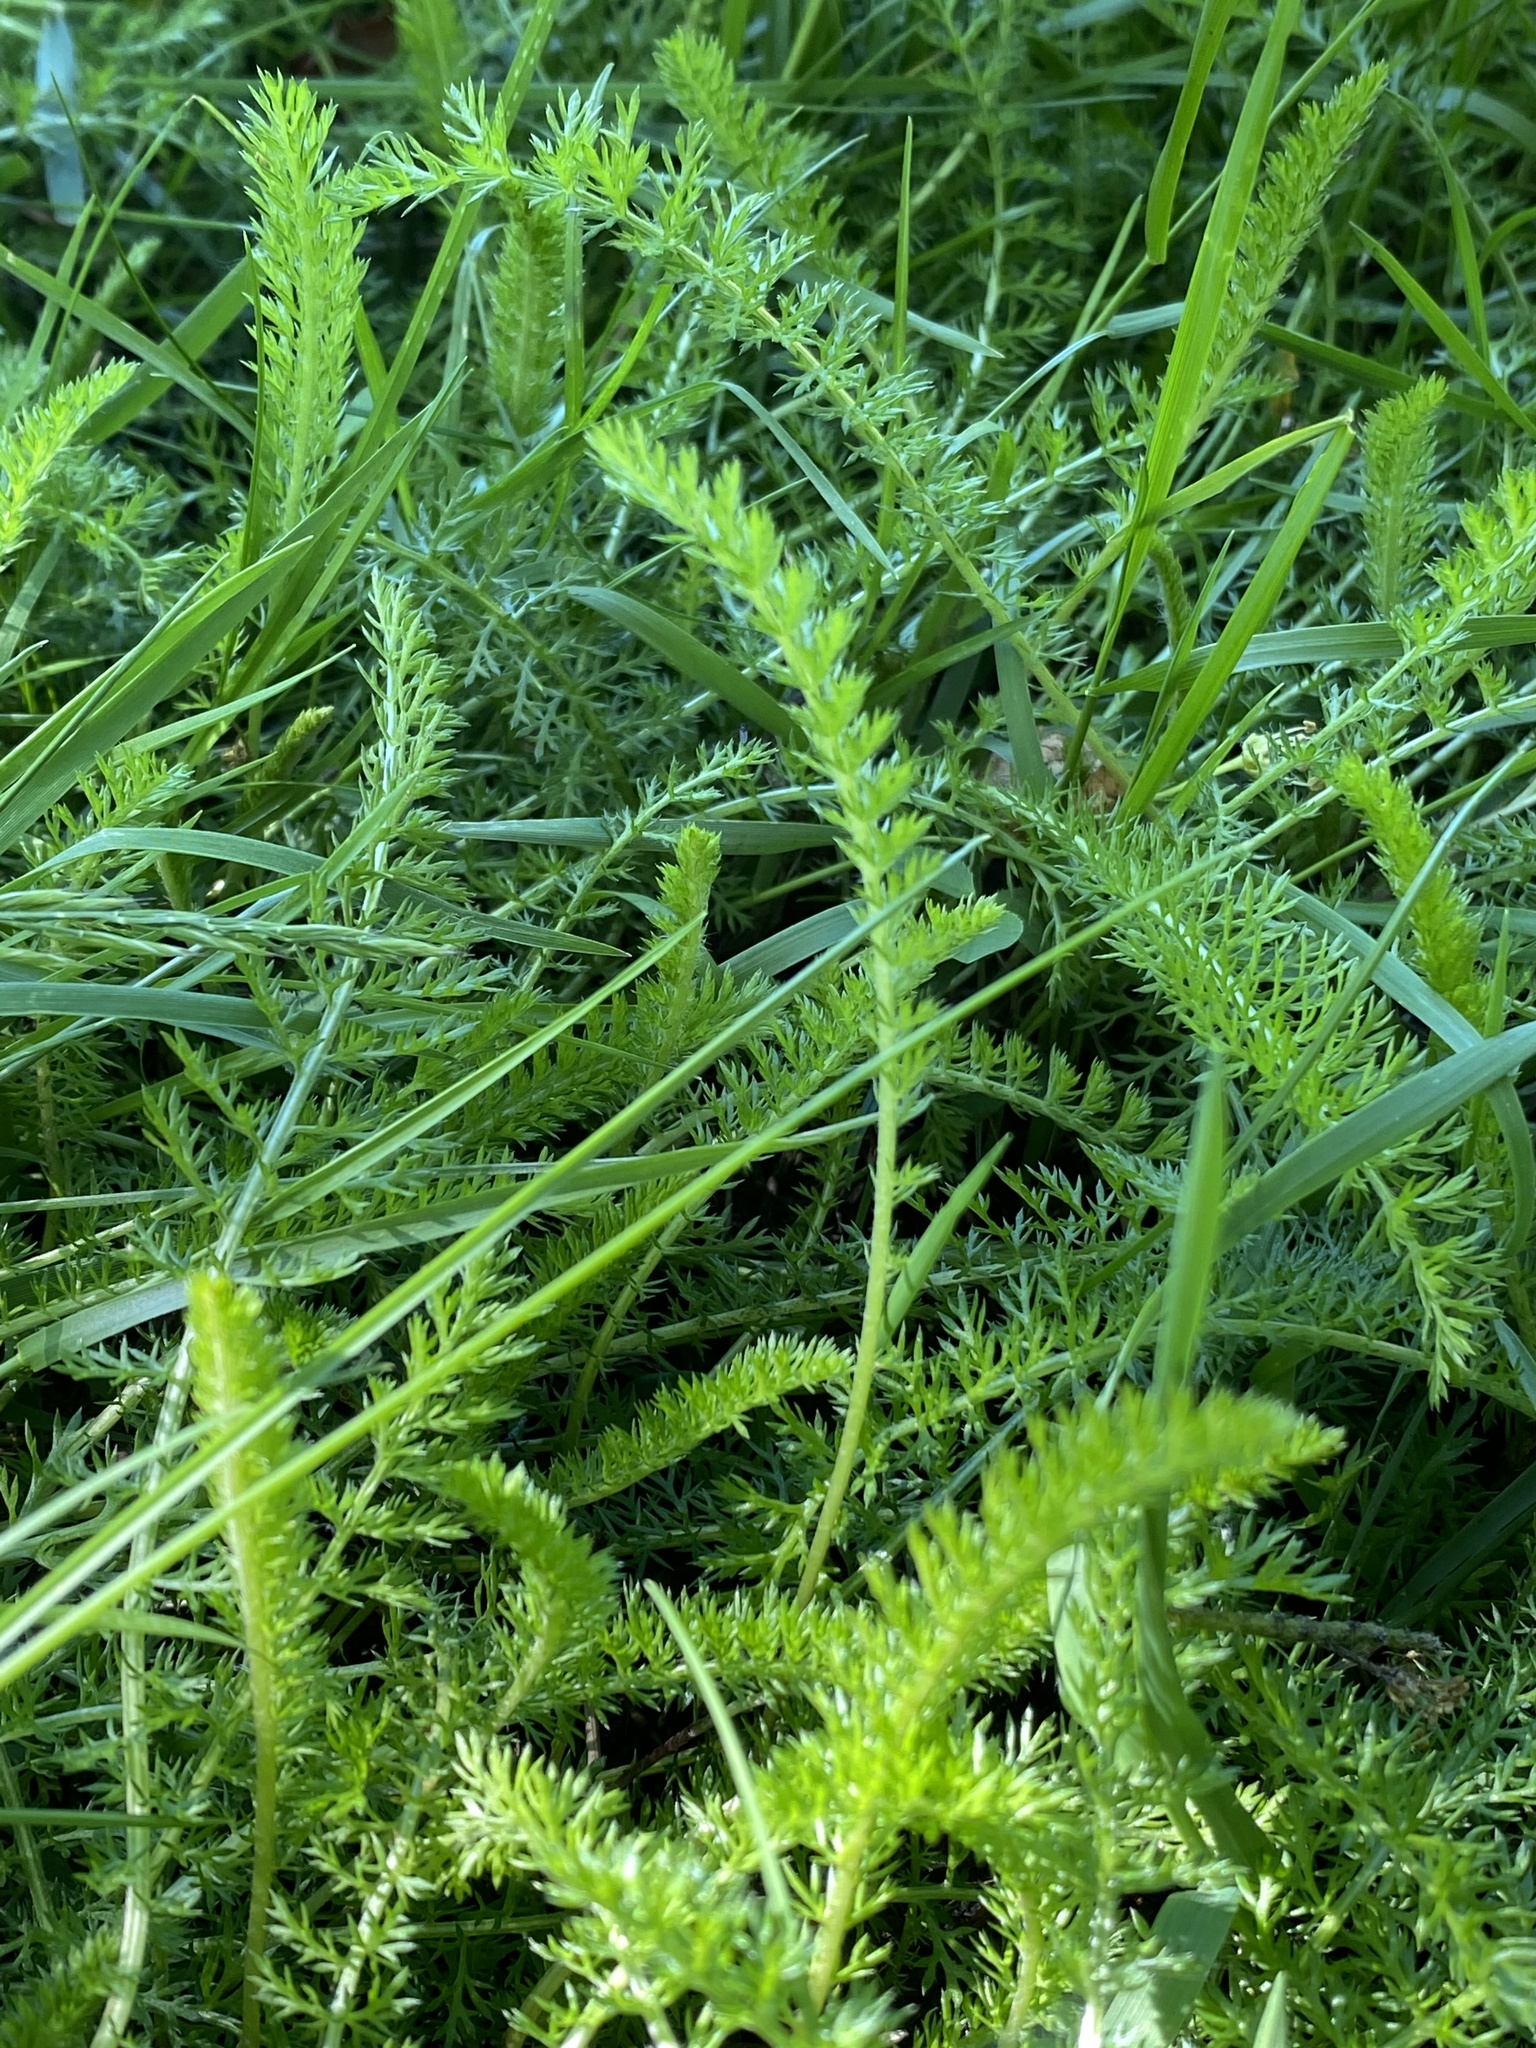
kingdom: Plantae
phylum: Tracheophyta
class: Magnoliopsida
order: Asterales
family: Asteraceae
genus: Achillea
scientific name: Achillea millefolium
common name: Yarrow
